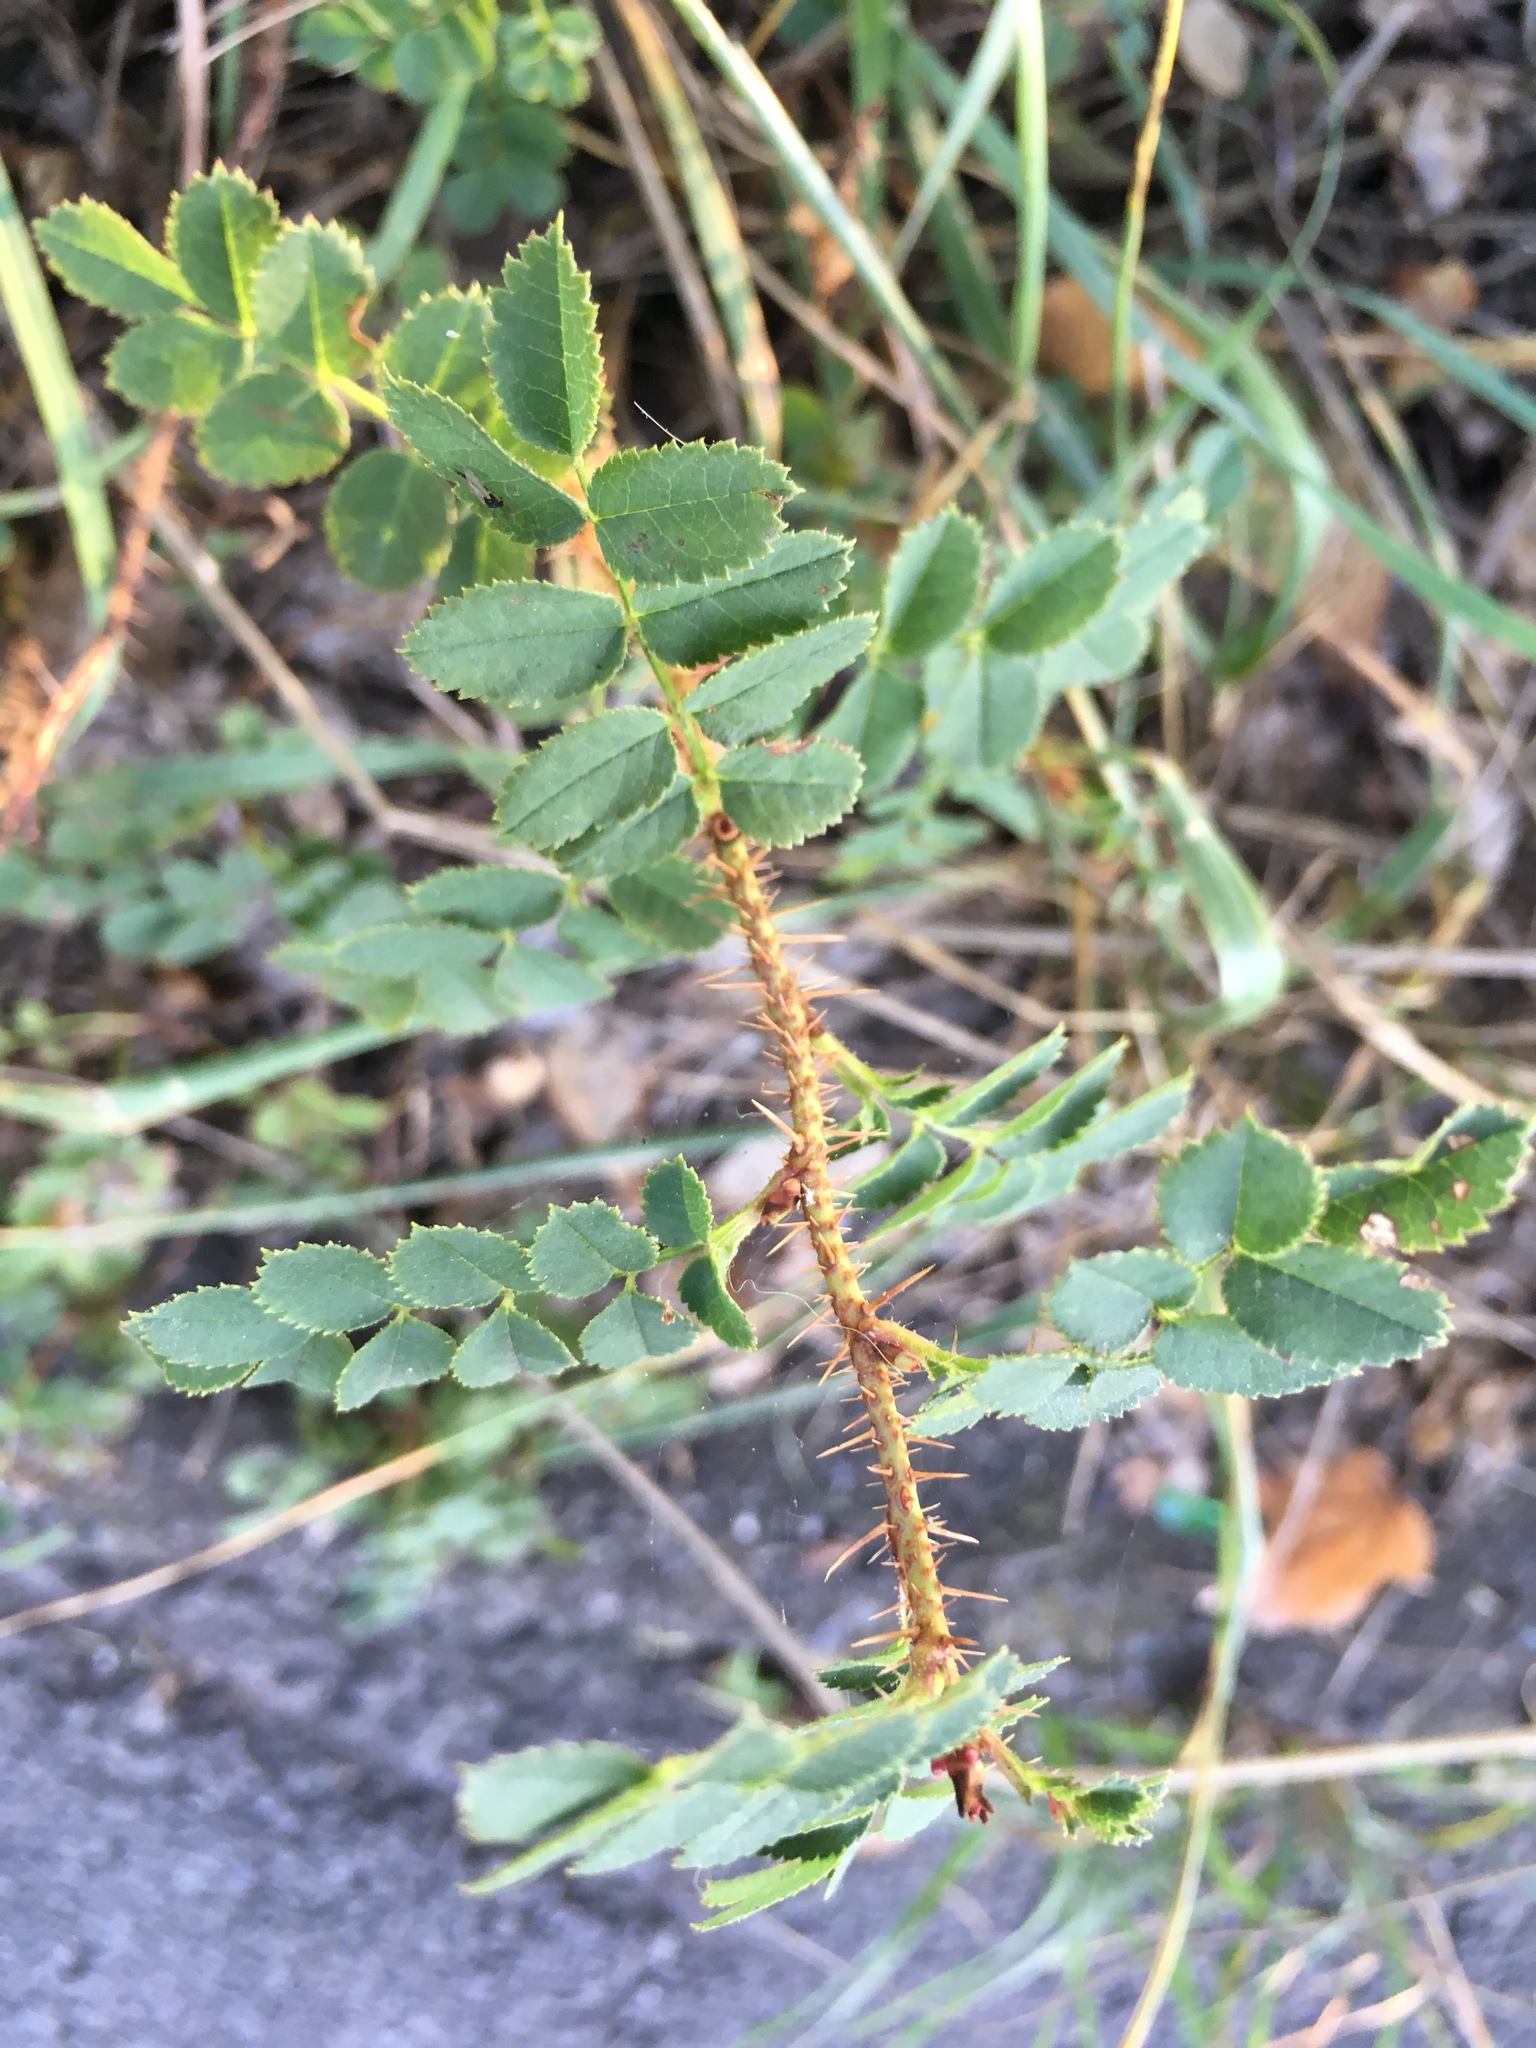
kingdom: Plantae
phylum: Tracheophyta
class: Magnoliopsida
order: Rosales
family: Rosaceae
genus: Rosa
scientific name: Rosa spinosissima
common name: Burnet rose
